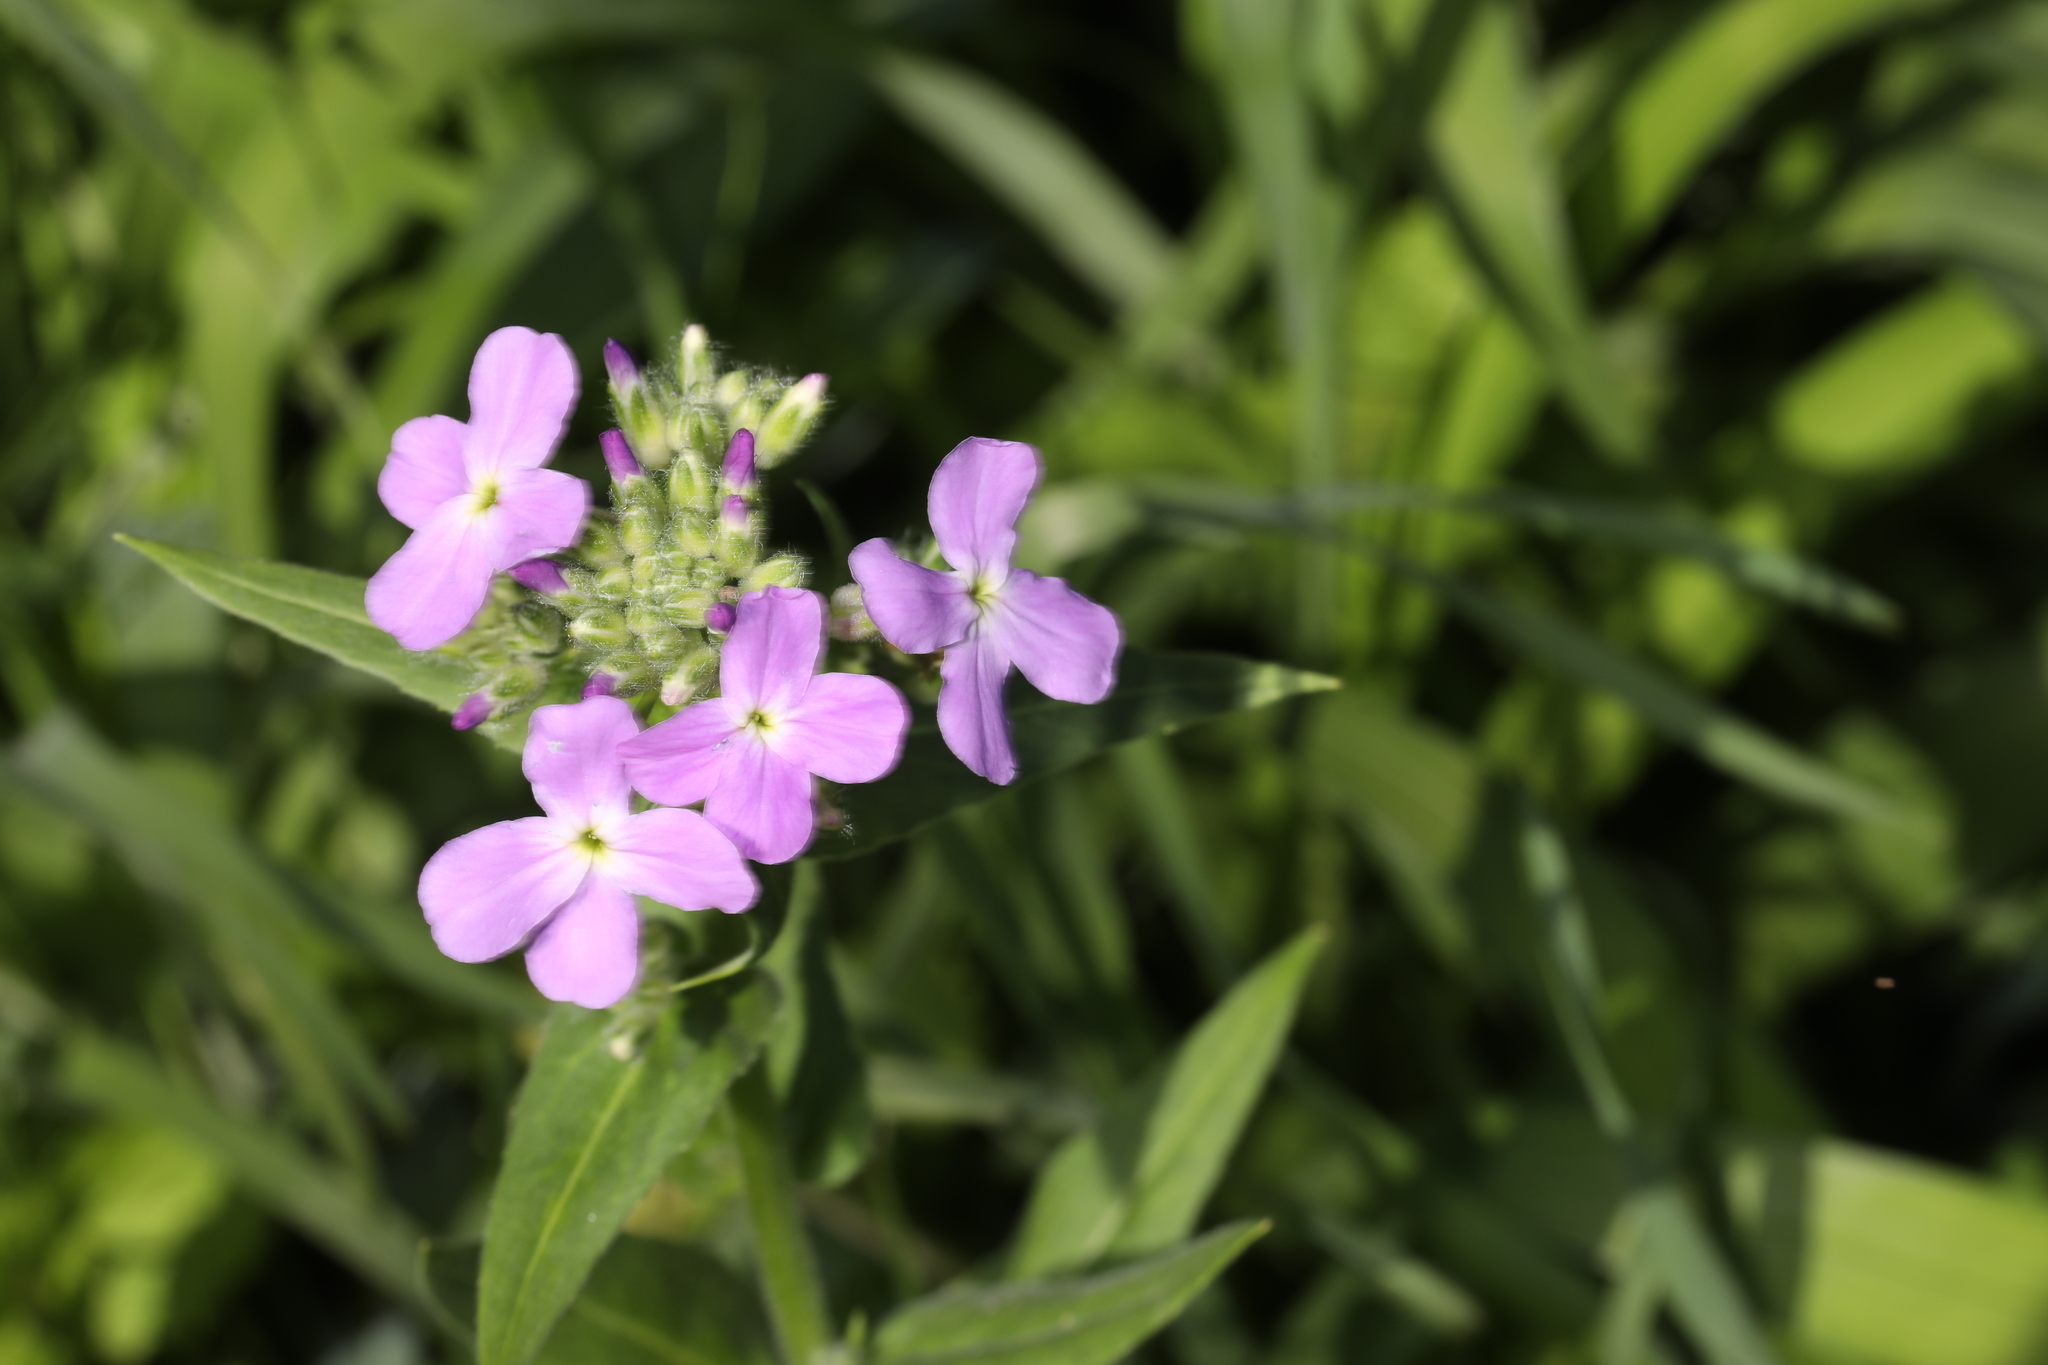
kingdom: Plantae
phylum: Tracheophyta
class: Magnoliopsida
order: Brassicales
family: Brassicaceae
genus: Hesperis
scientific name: Hesperis matronalis
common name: Dame's-violet
